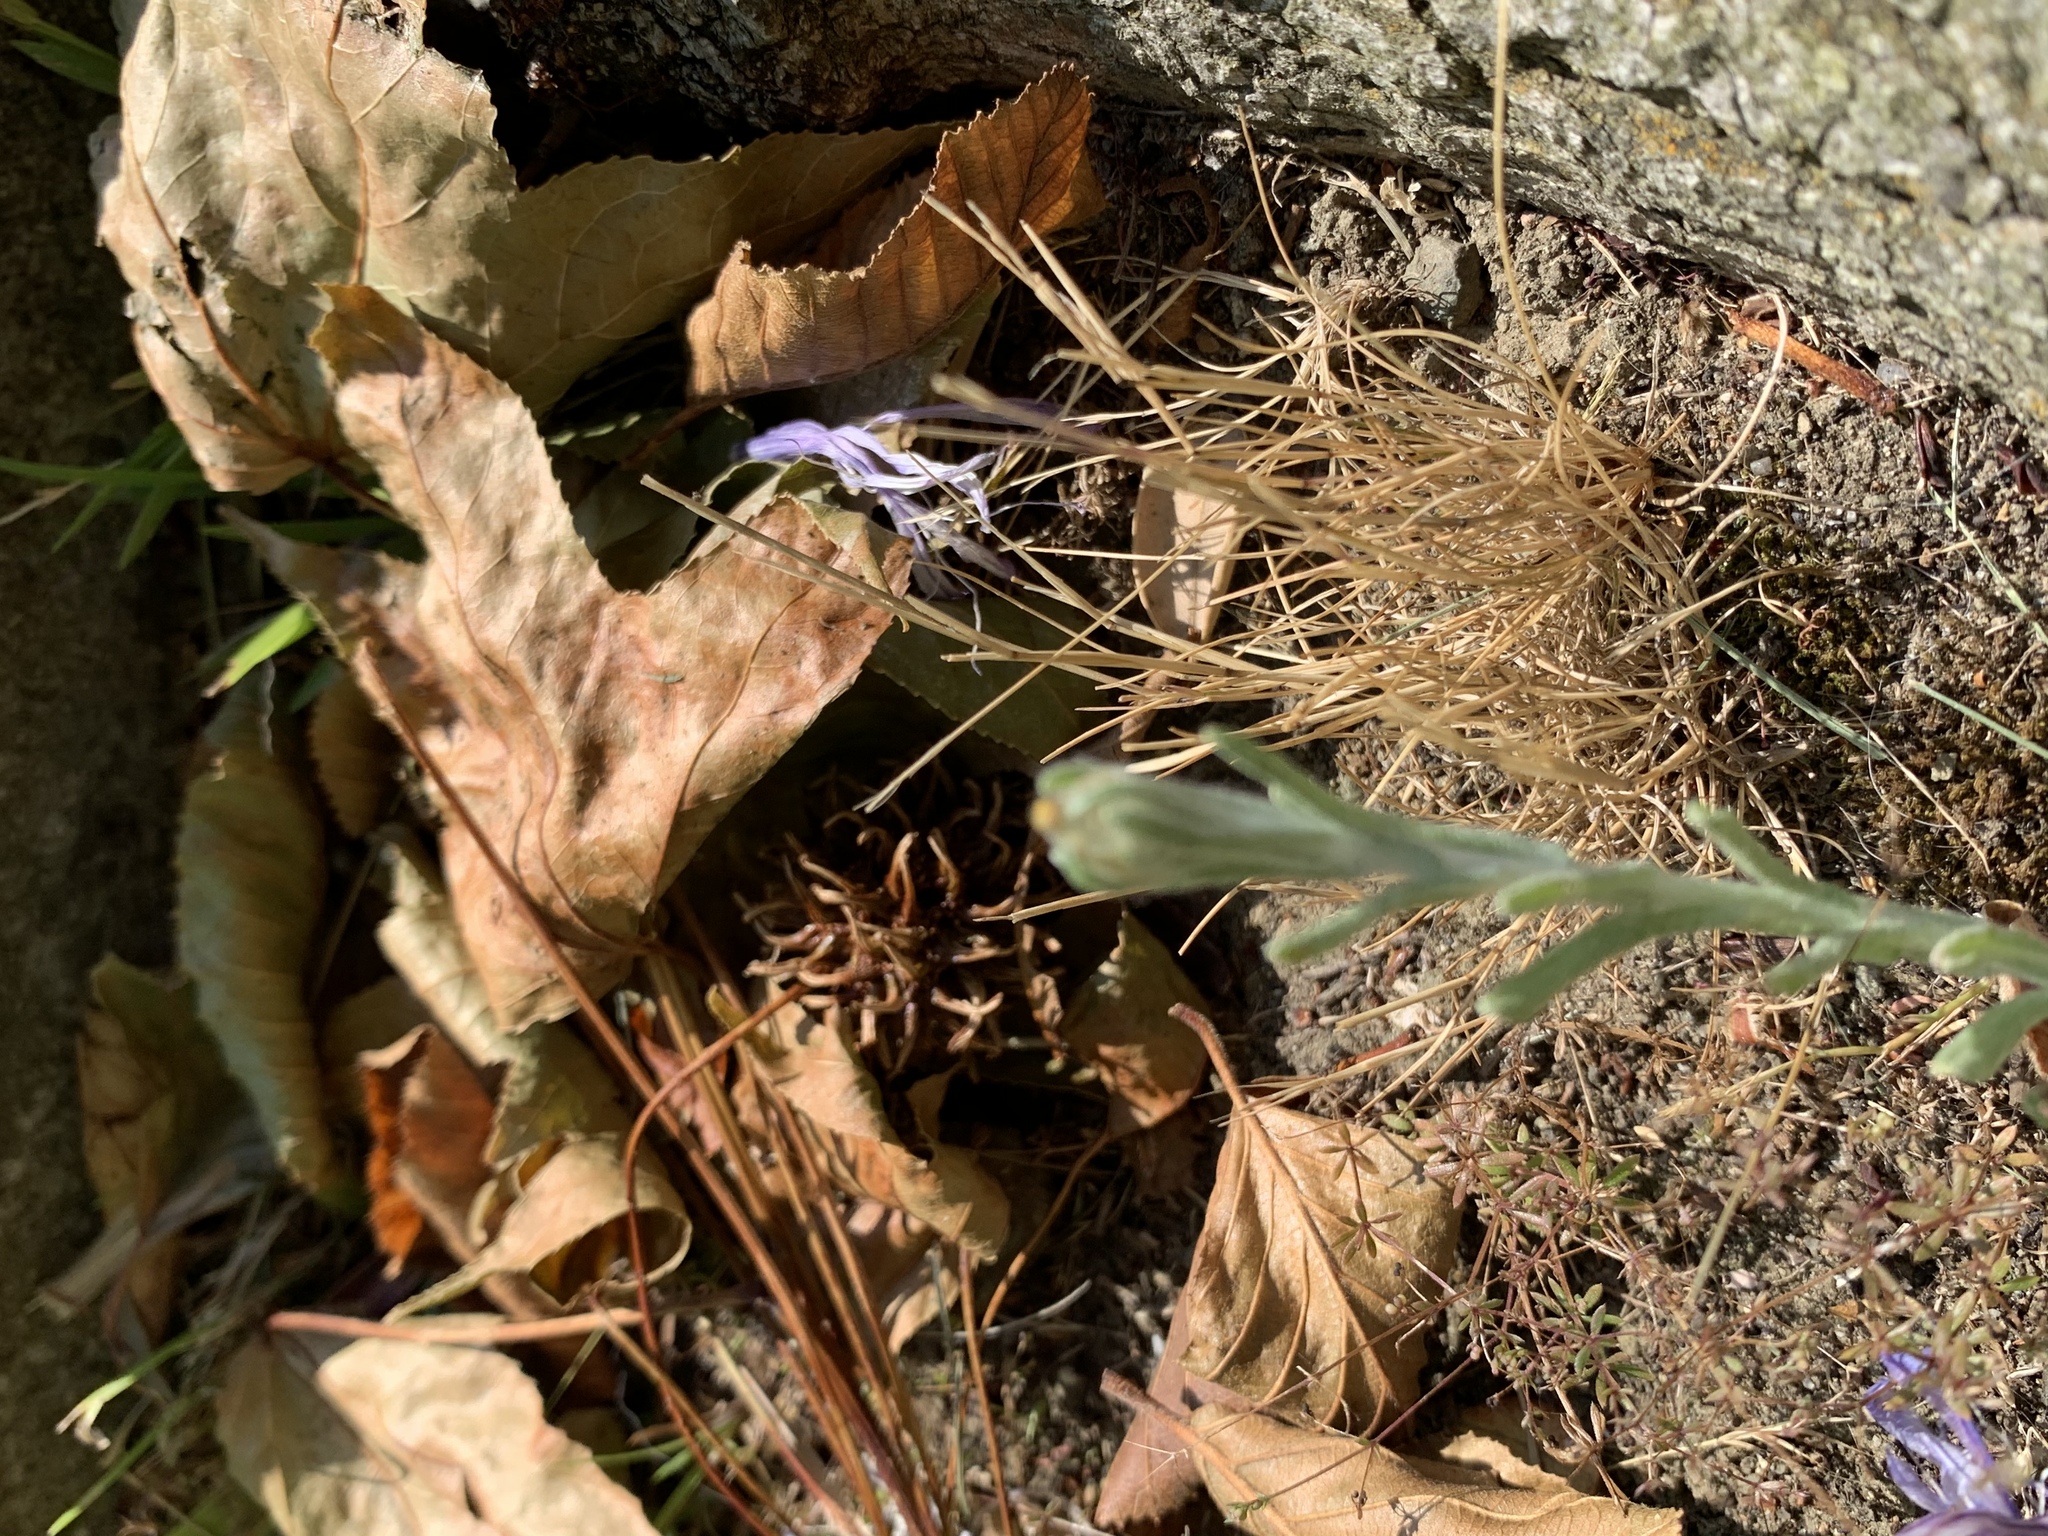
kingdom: Plantae
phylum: Tracheophyta
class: Magnoliopsida
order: Asterales
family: Asteraceae
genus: Helichrysum
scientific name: Helichrysum luteoalbum
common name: Daisy
